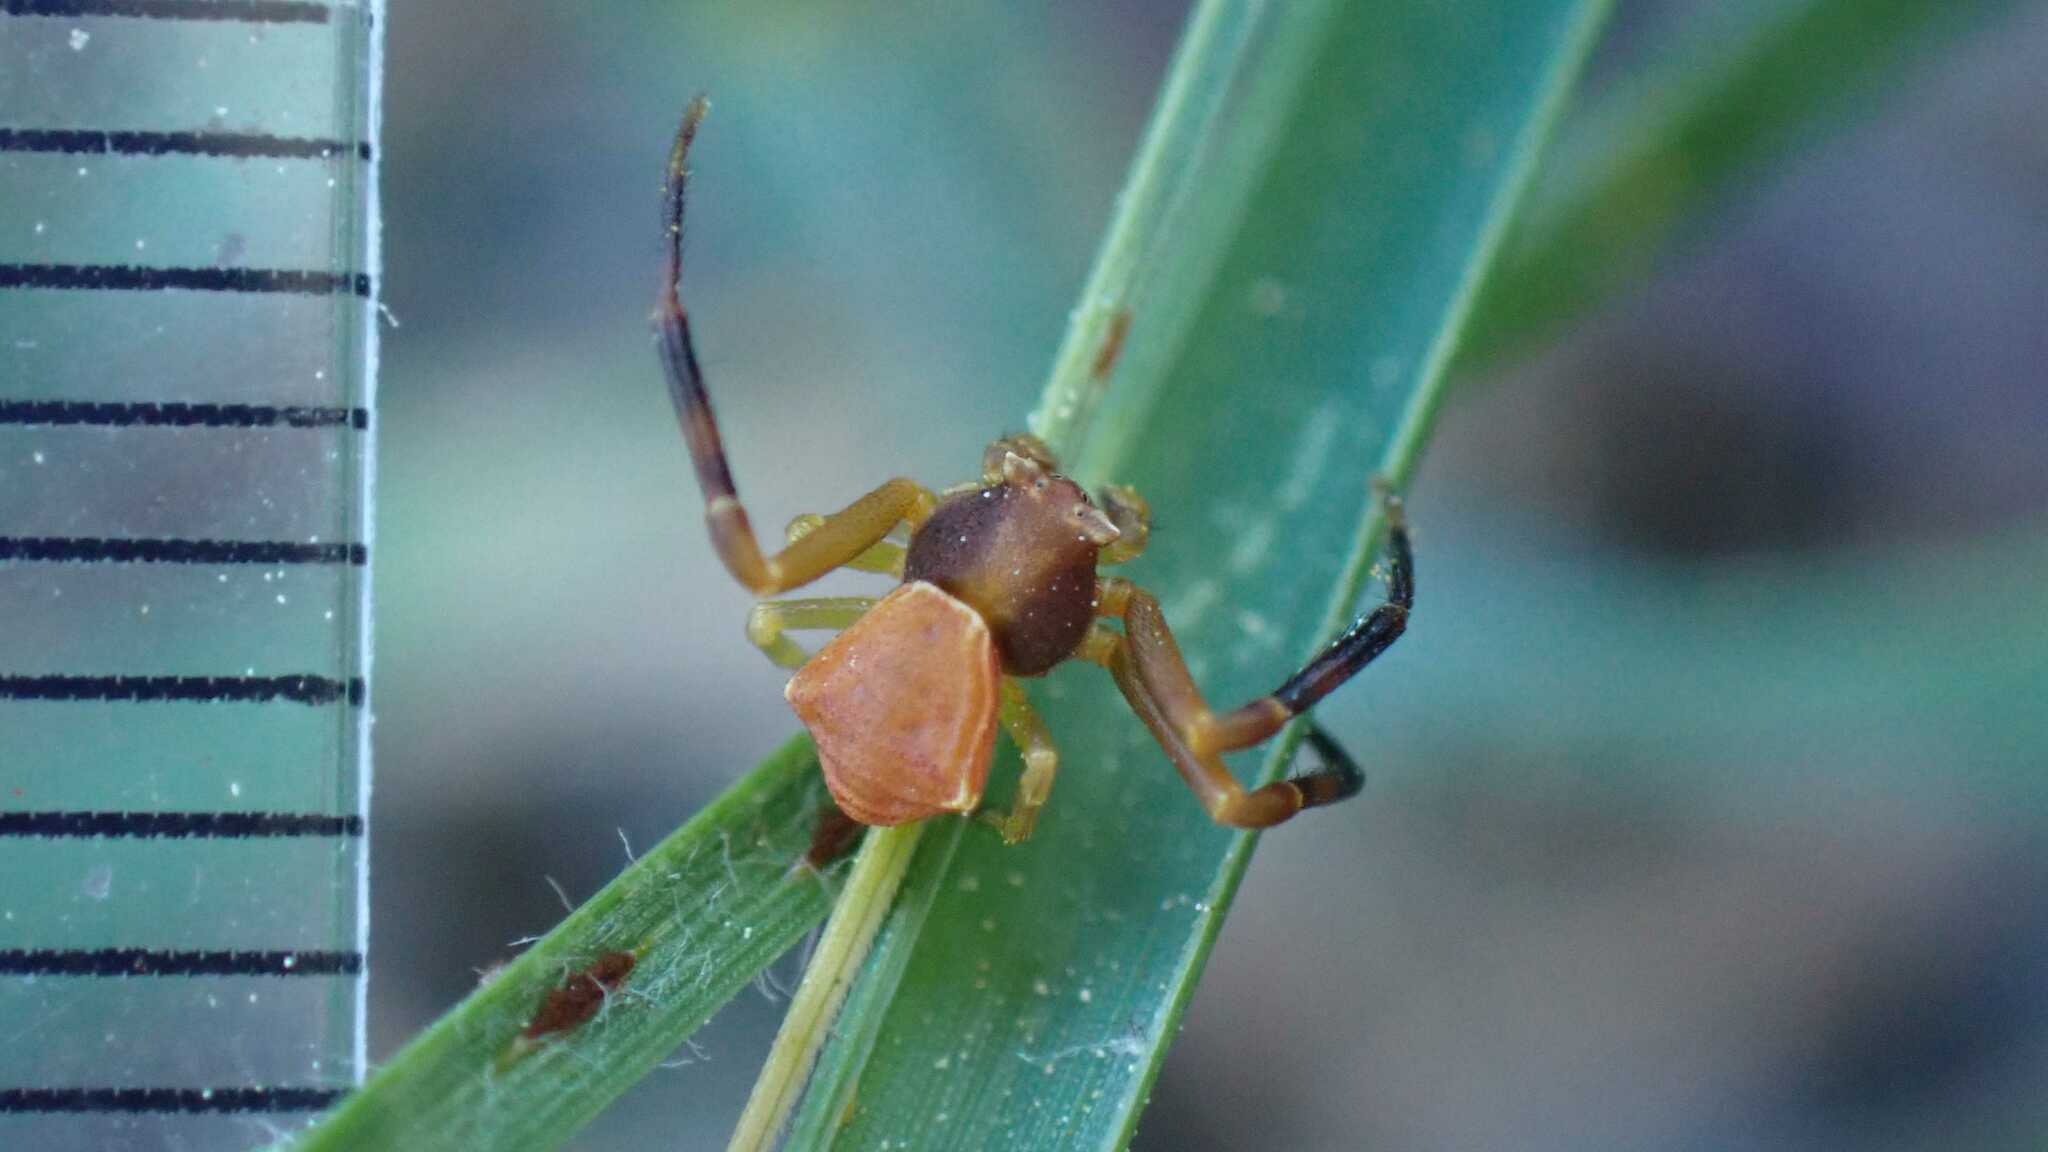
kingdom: Animalia
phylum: Arthropoda
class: Arachnida
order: Araneae
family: Thomisidae
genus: Pistius
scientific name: Pistius truncatus
